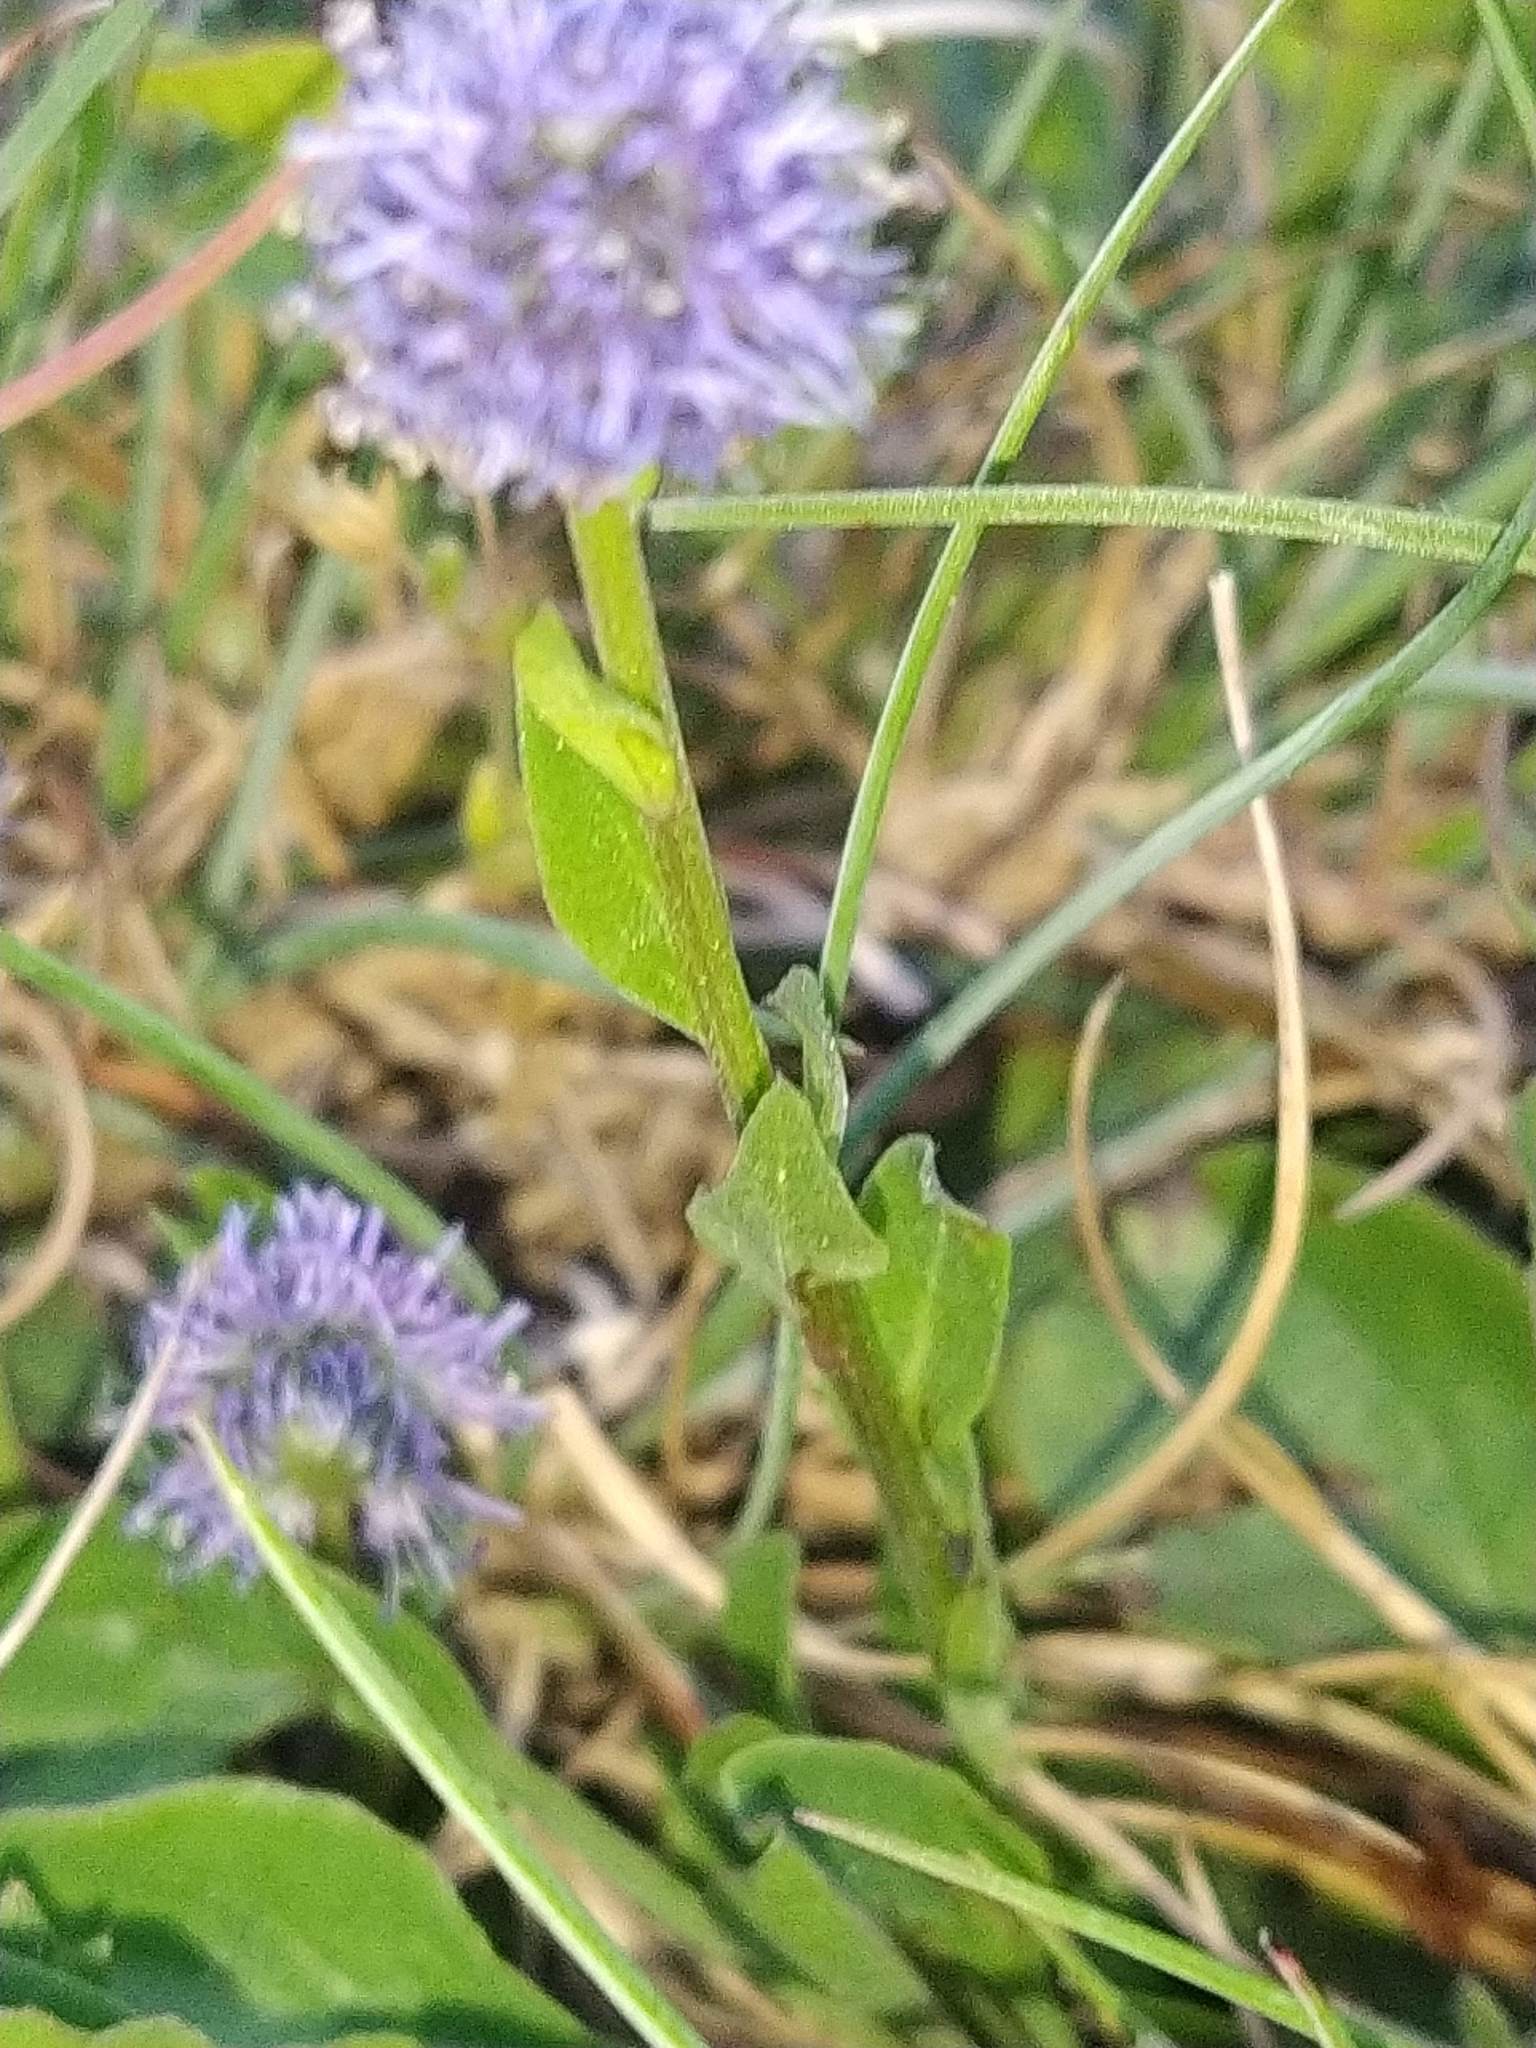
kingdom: Plantae
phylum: Tracheophyta
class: Magnoliopsida
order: Lamiales
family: Plantaginaceae
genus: Globularia
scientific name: Globularia bisnagarica
